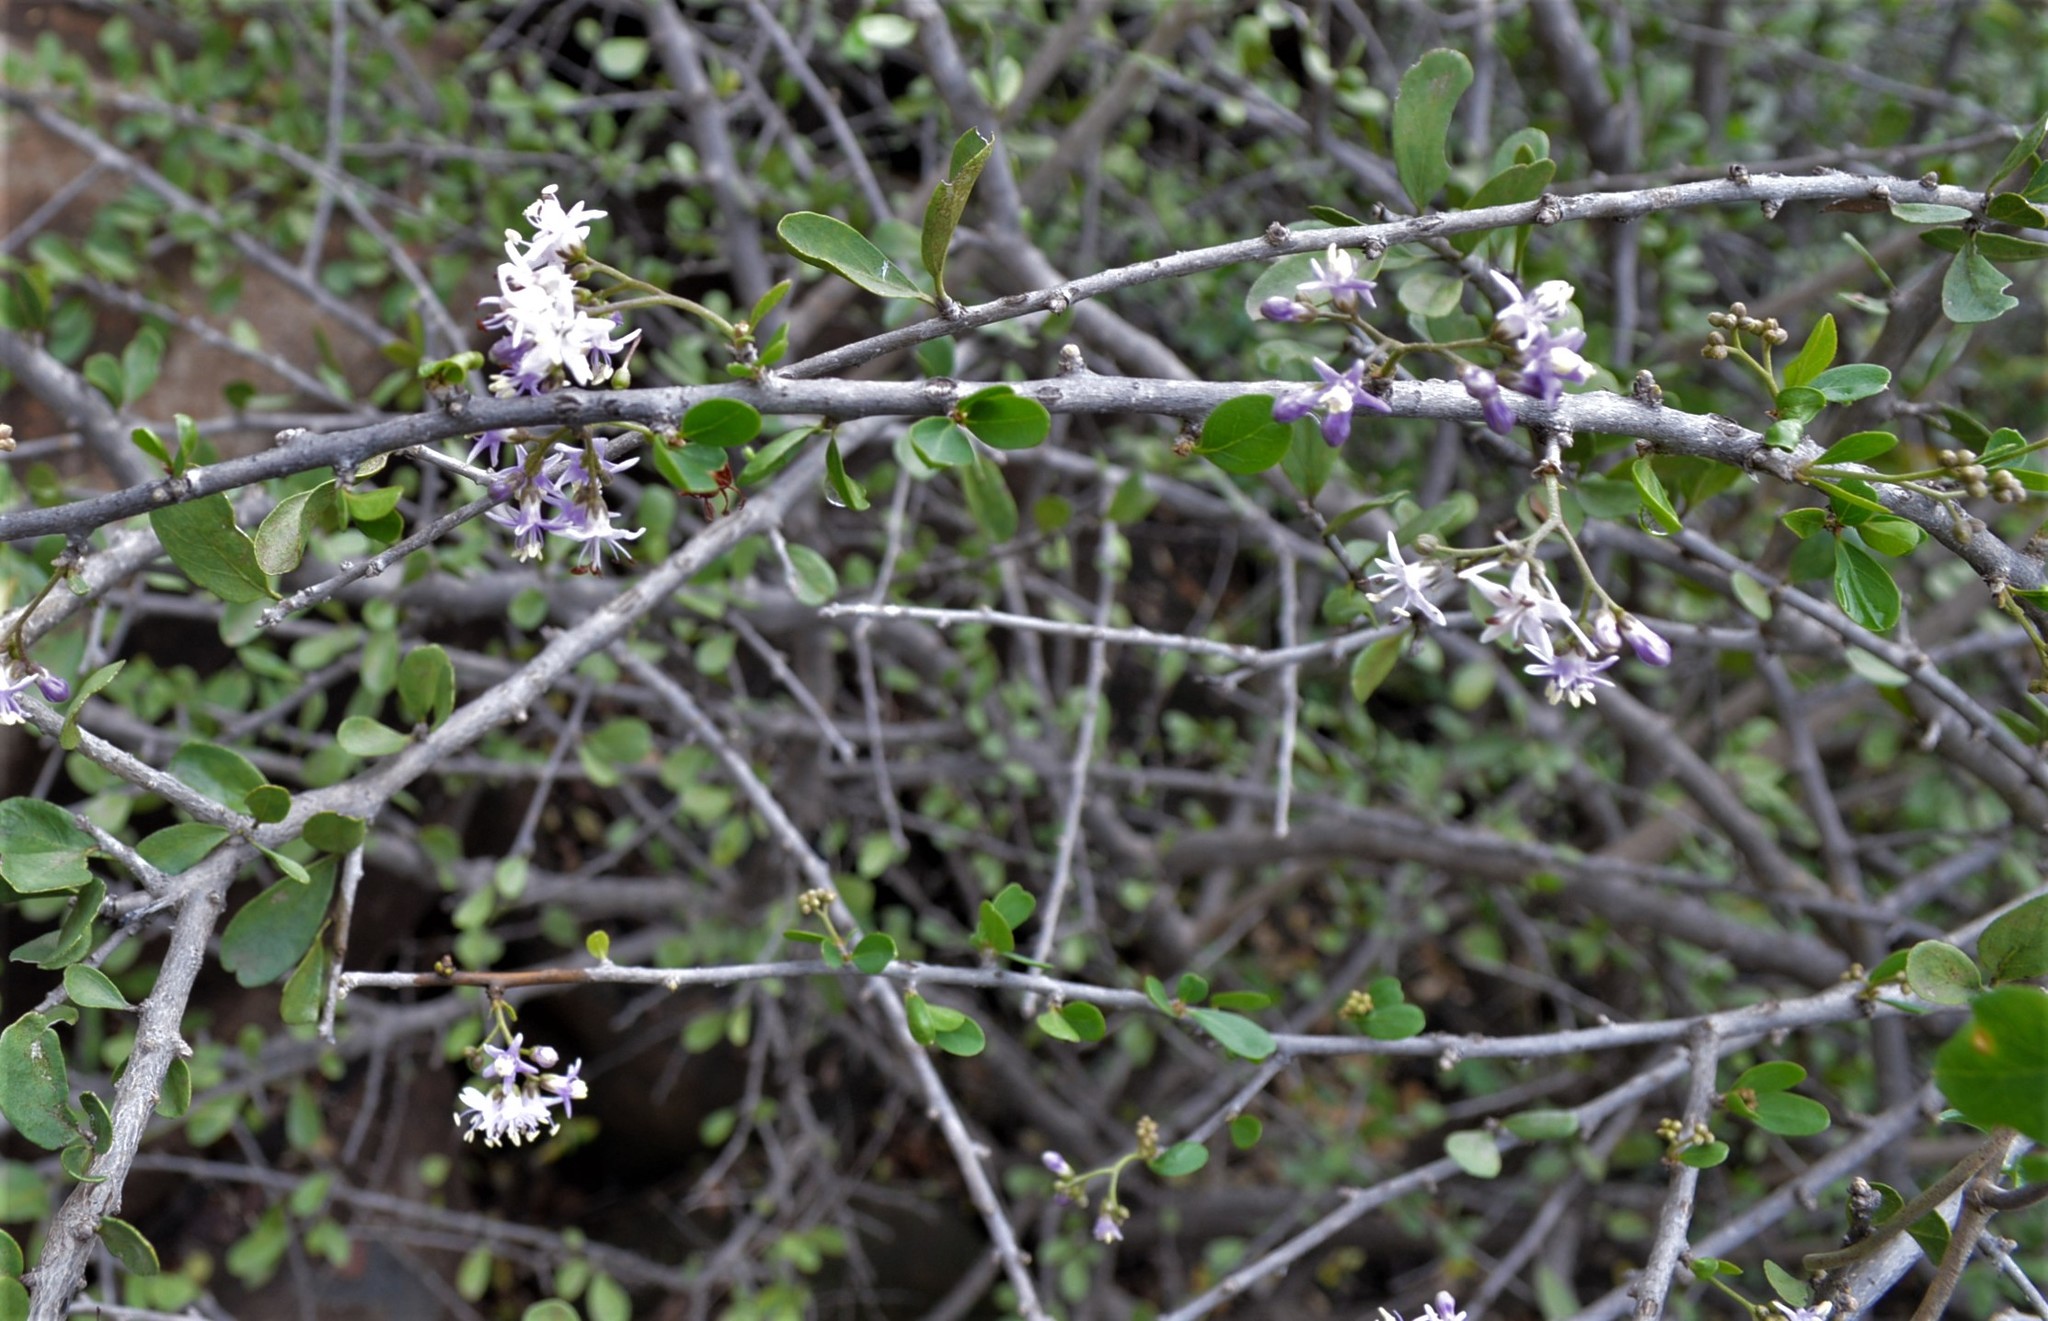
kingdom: Plantae
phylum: Tracheophyta
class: Magnoliopsida
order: Boraginales
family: Ehretiaceae
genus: Ehretia
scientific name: Ehretia rigida
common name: Cape lilac
